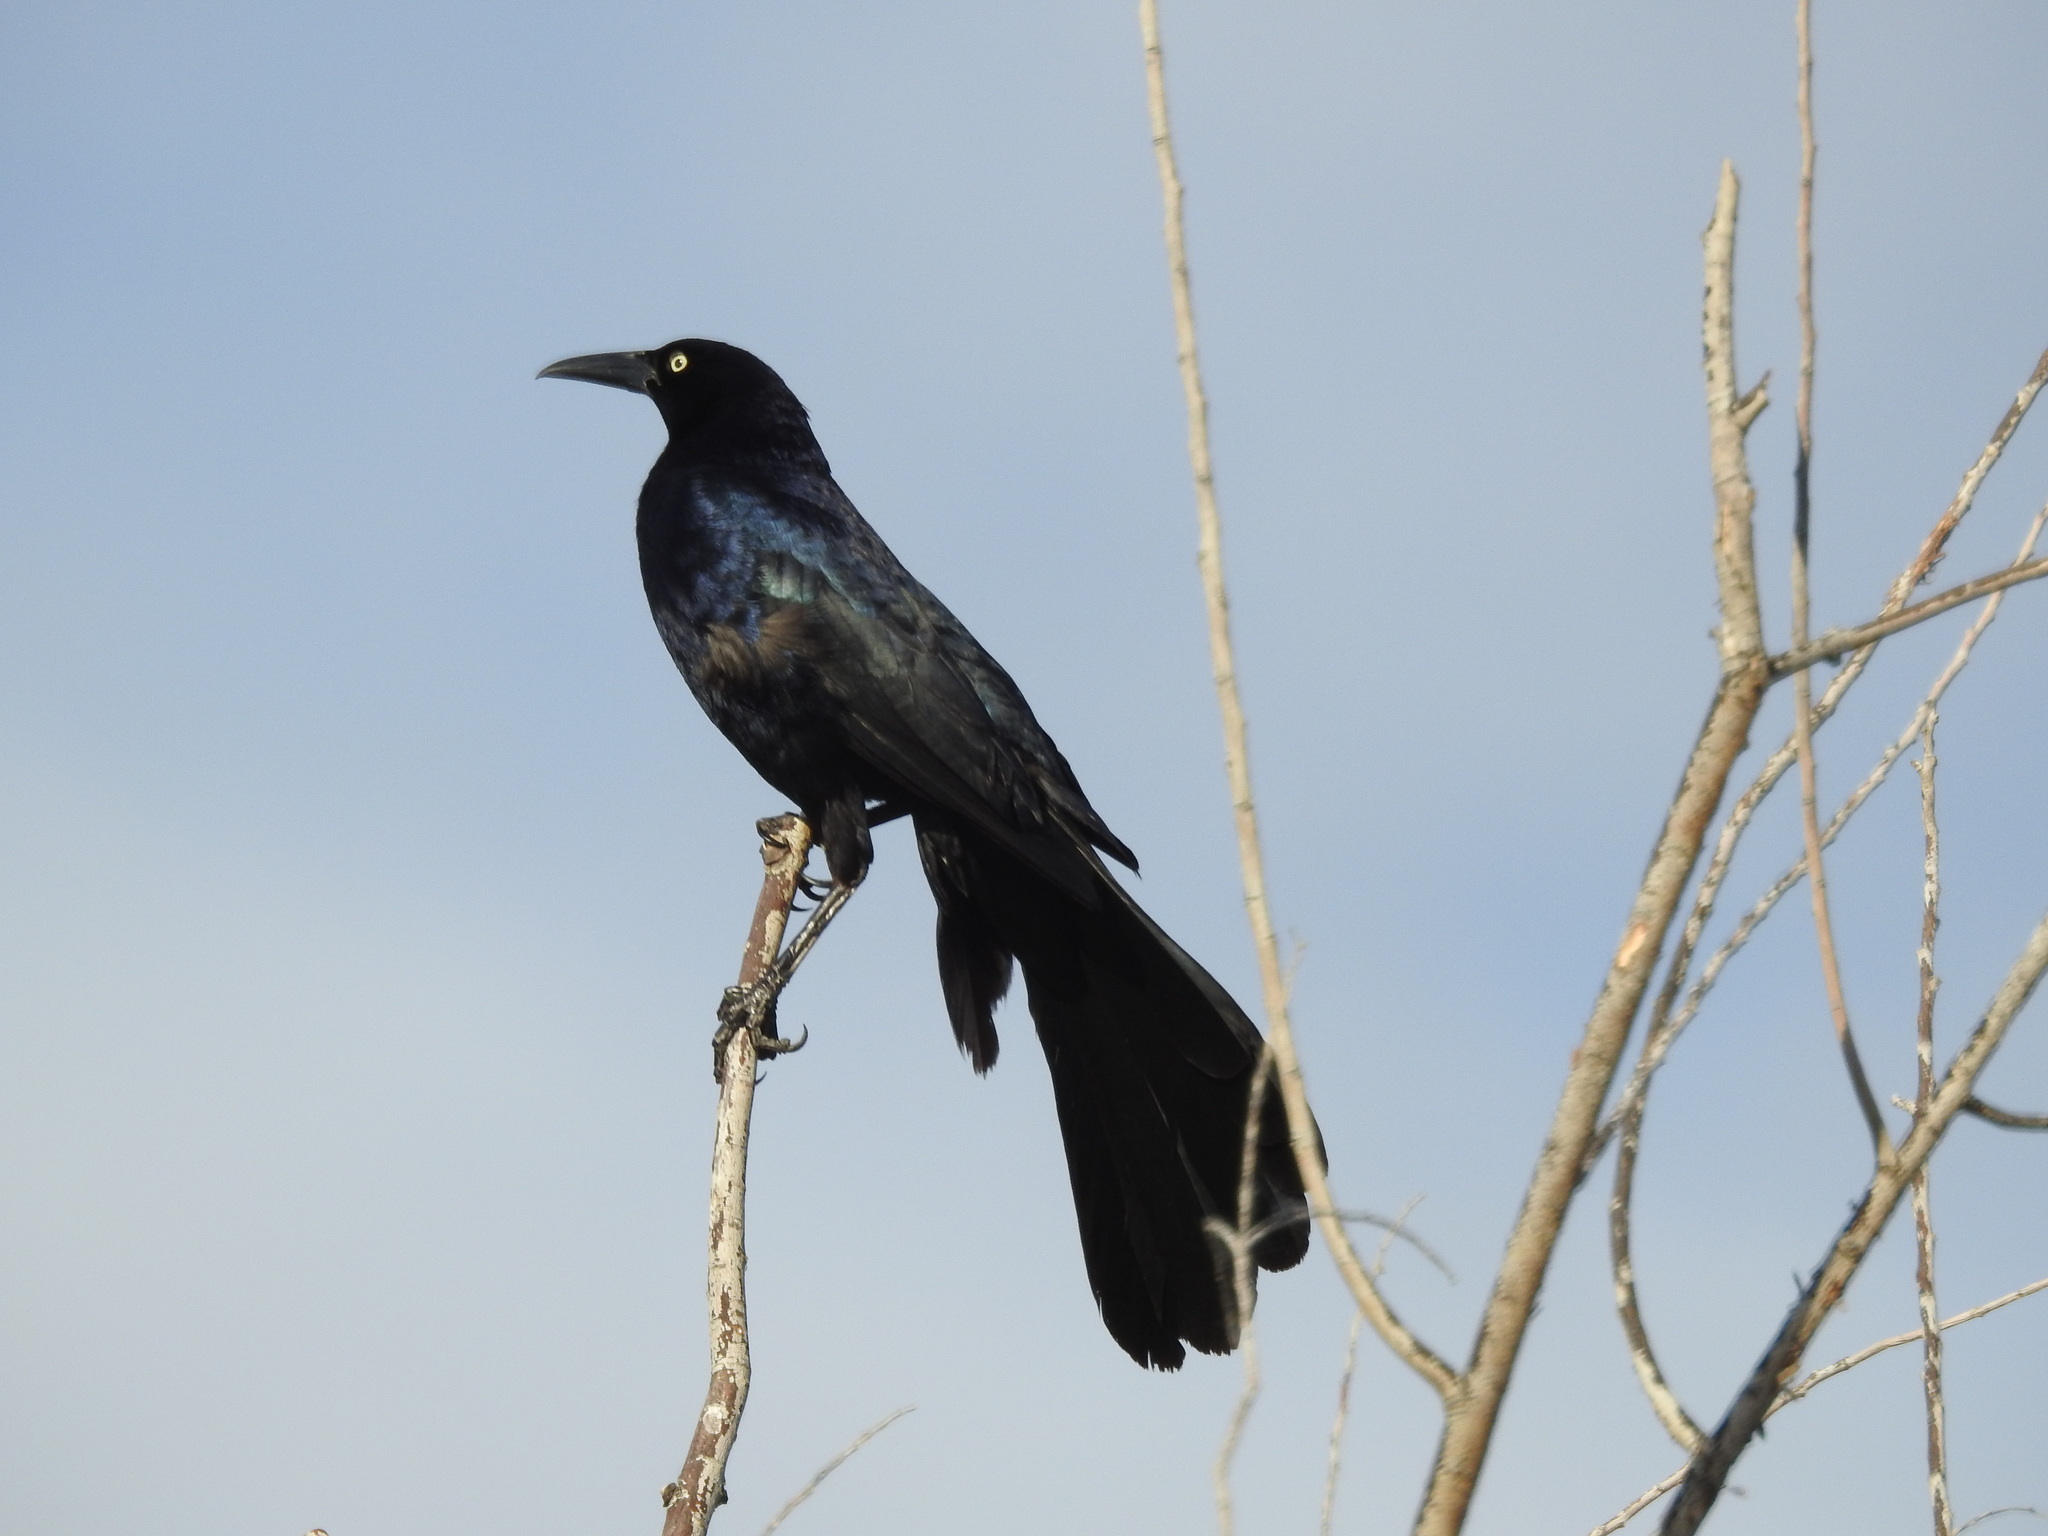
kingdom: Animalia
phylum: Chordata
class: Aves
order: Passeriformes
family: Icteridae
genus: Quiscalus
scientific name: Quiscalus mexicanus
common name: Great-tailed grackle
